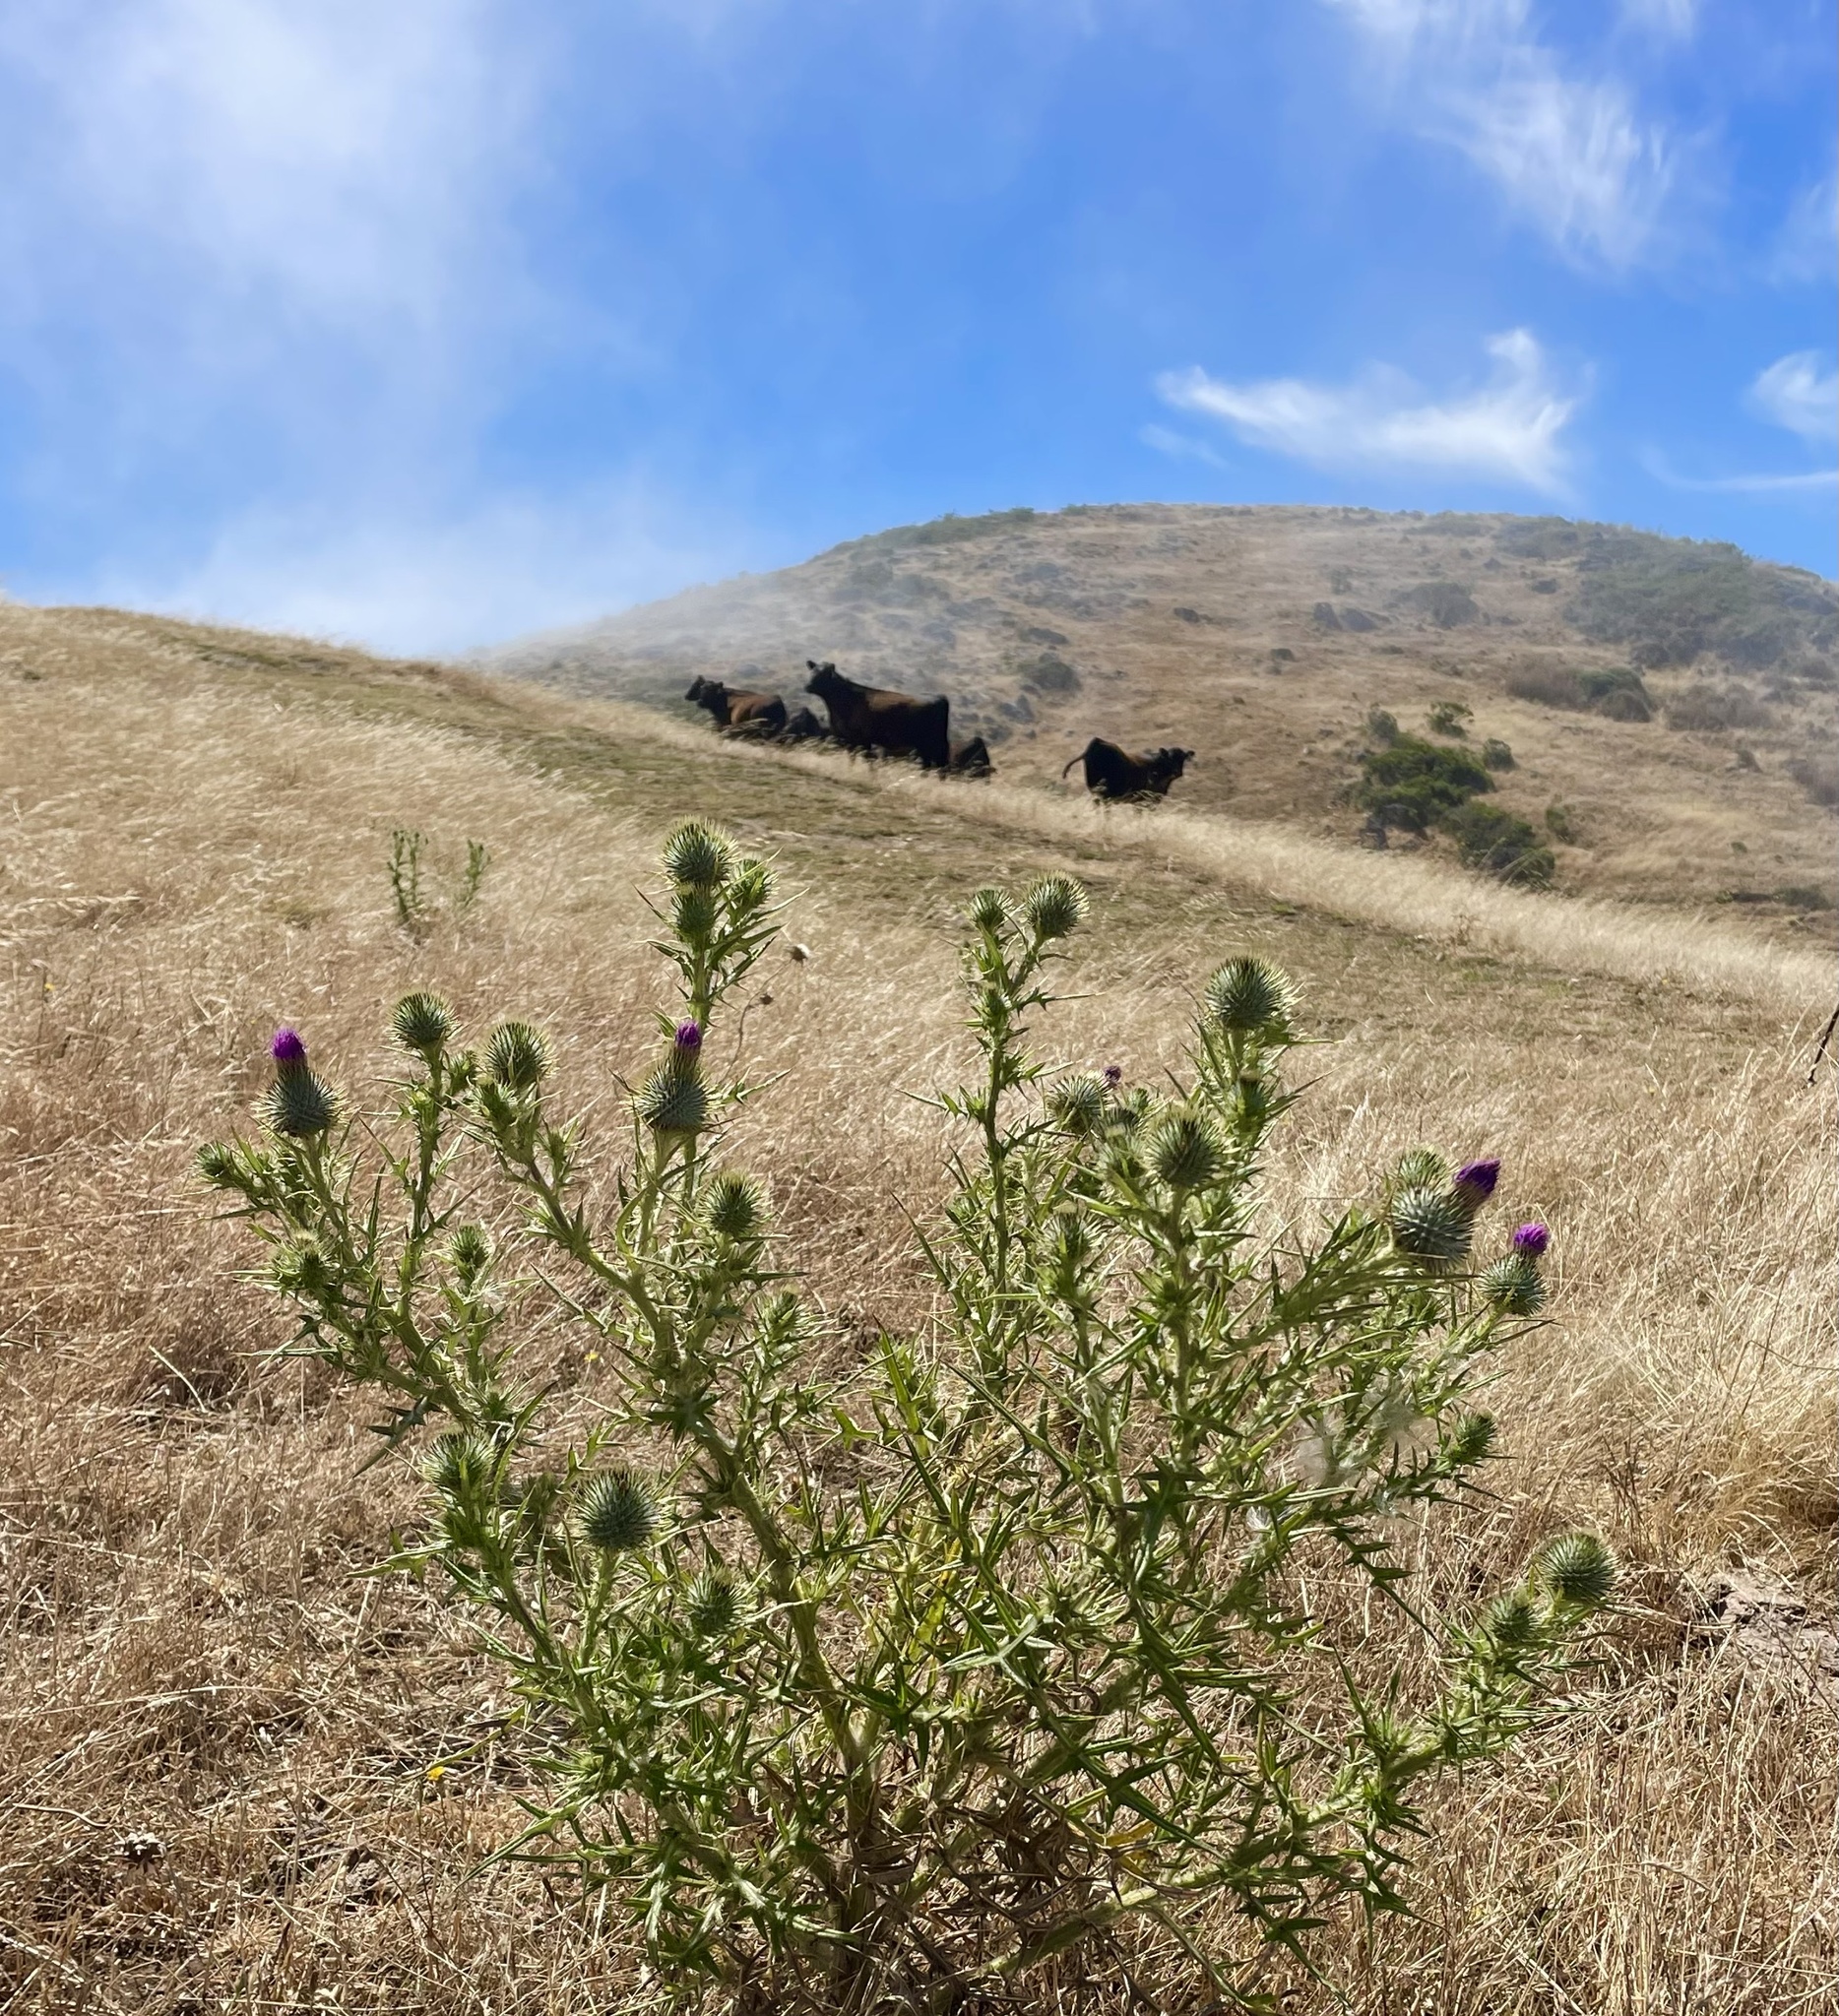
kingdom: Plantae
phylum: Tracheophyta
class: Magnoliopsida
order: Asterales
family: Asteraceae
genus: Cirsium
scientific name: Cirsium vulgare
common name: Bull thistle
